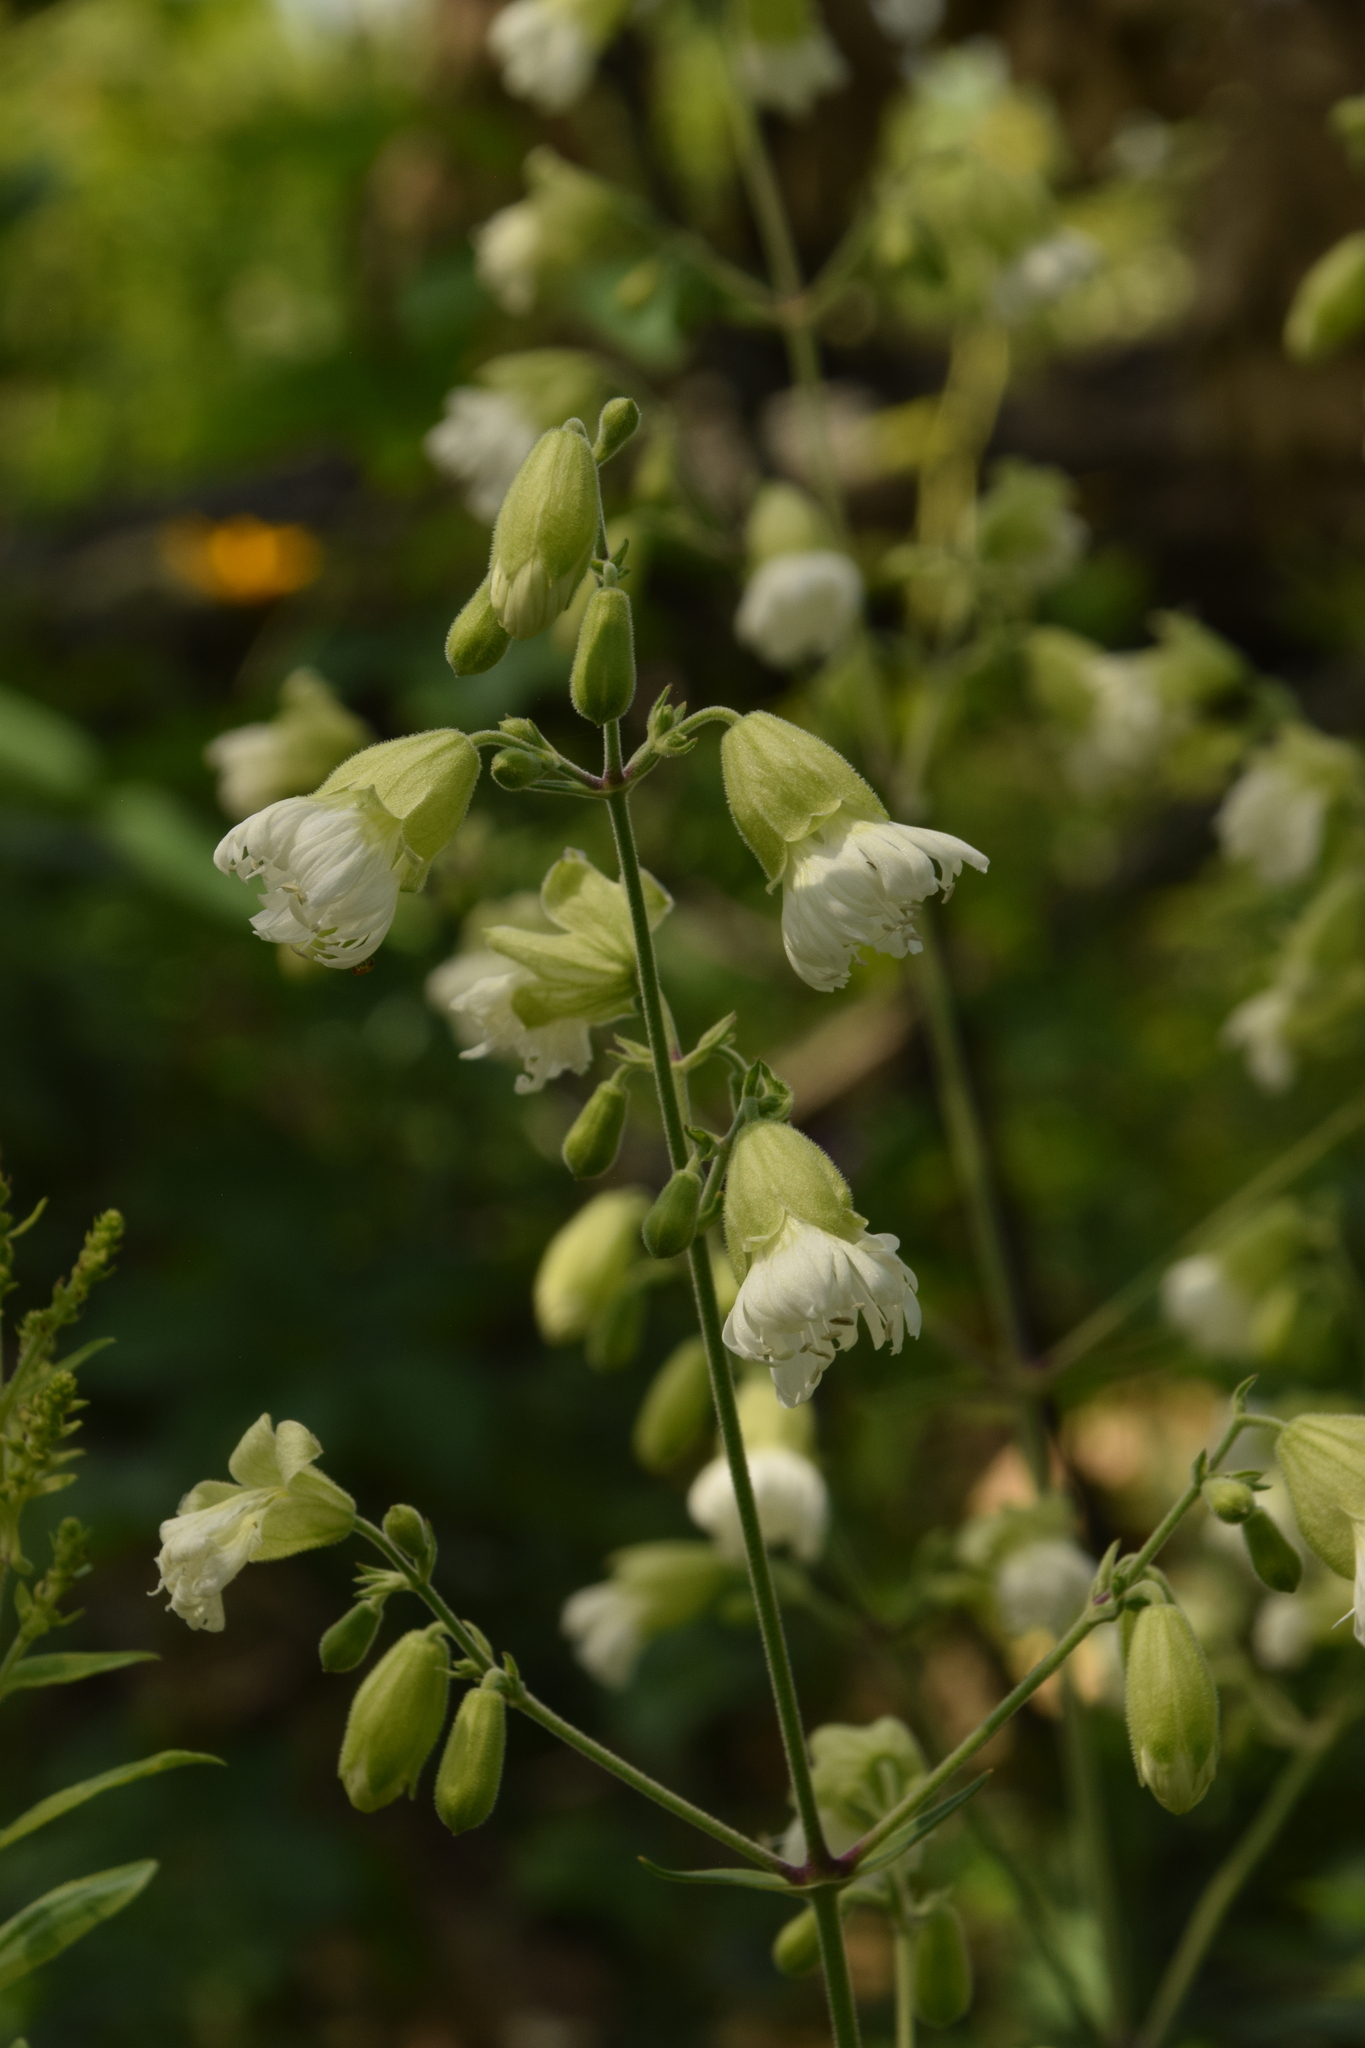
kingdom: Plantae
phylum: Tracheophyta
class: Magnoliopsida
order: Caryophyllales
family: Caryophyllaceae
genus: Silene
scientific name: Silene stellata
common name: Starry campion
